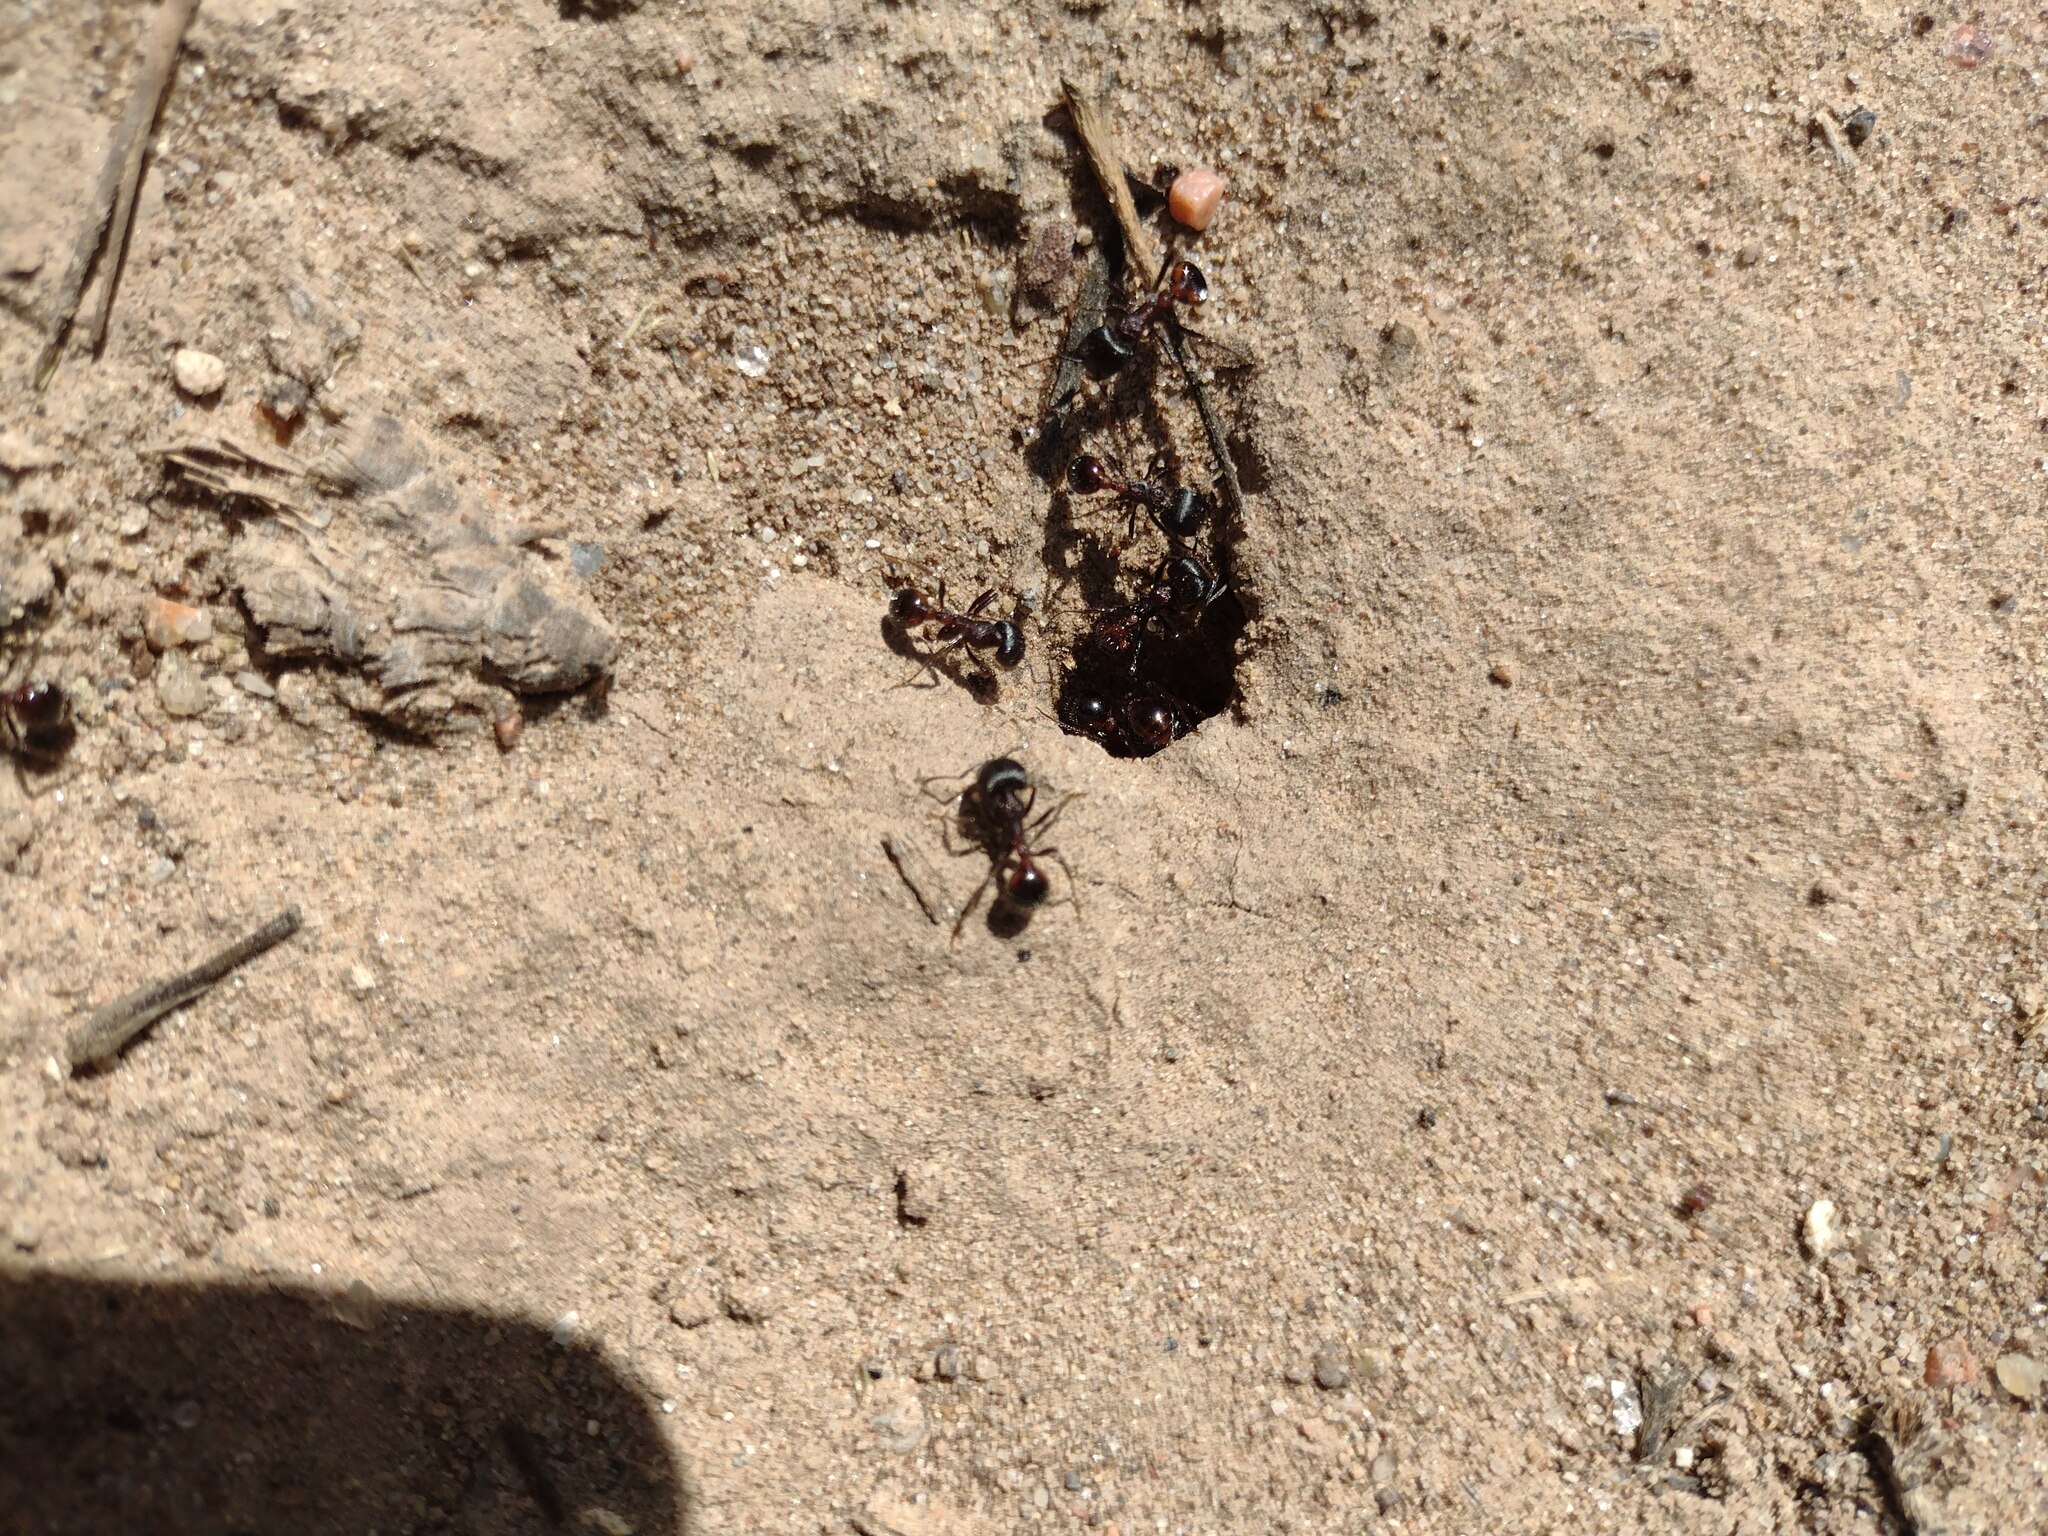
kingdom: Animalia
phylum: Arthropoda
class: Insecta
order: Hymenoptera
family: Formicidae
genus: Pogonomyrmex
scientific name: Pogonomyrmex rugosus
